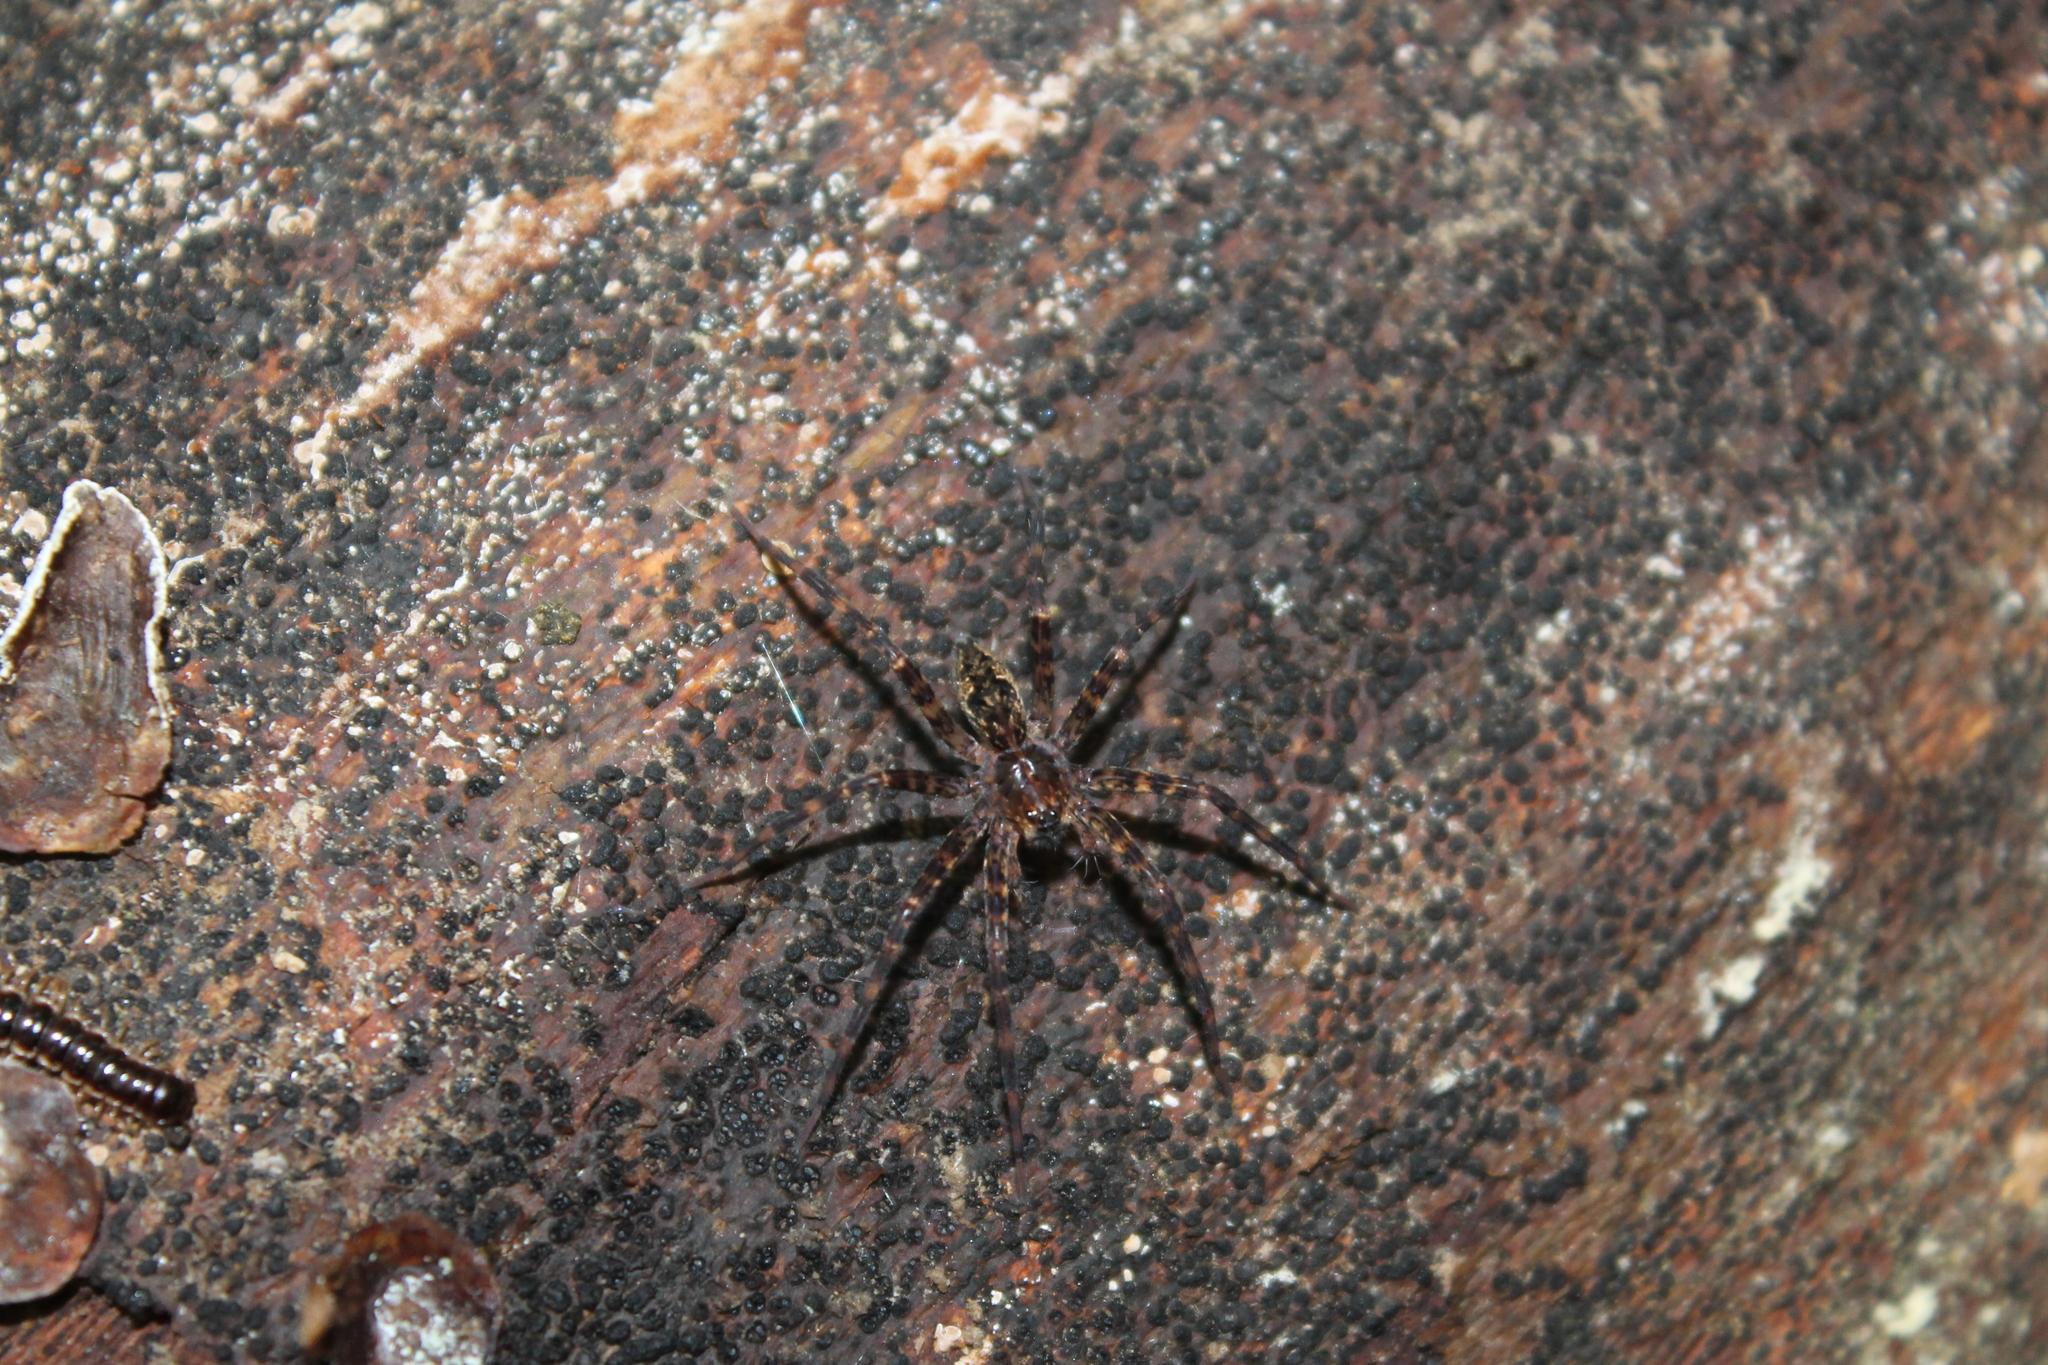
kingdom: Animalia
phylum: Arthropoda
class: Arachnida
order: Araneae
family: Pisauridae
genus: Dolomedes
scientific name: Dolomedes tenebrosus
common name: Dark fishing spider
